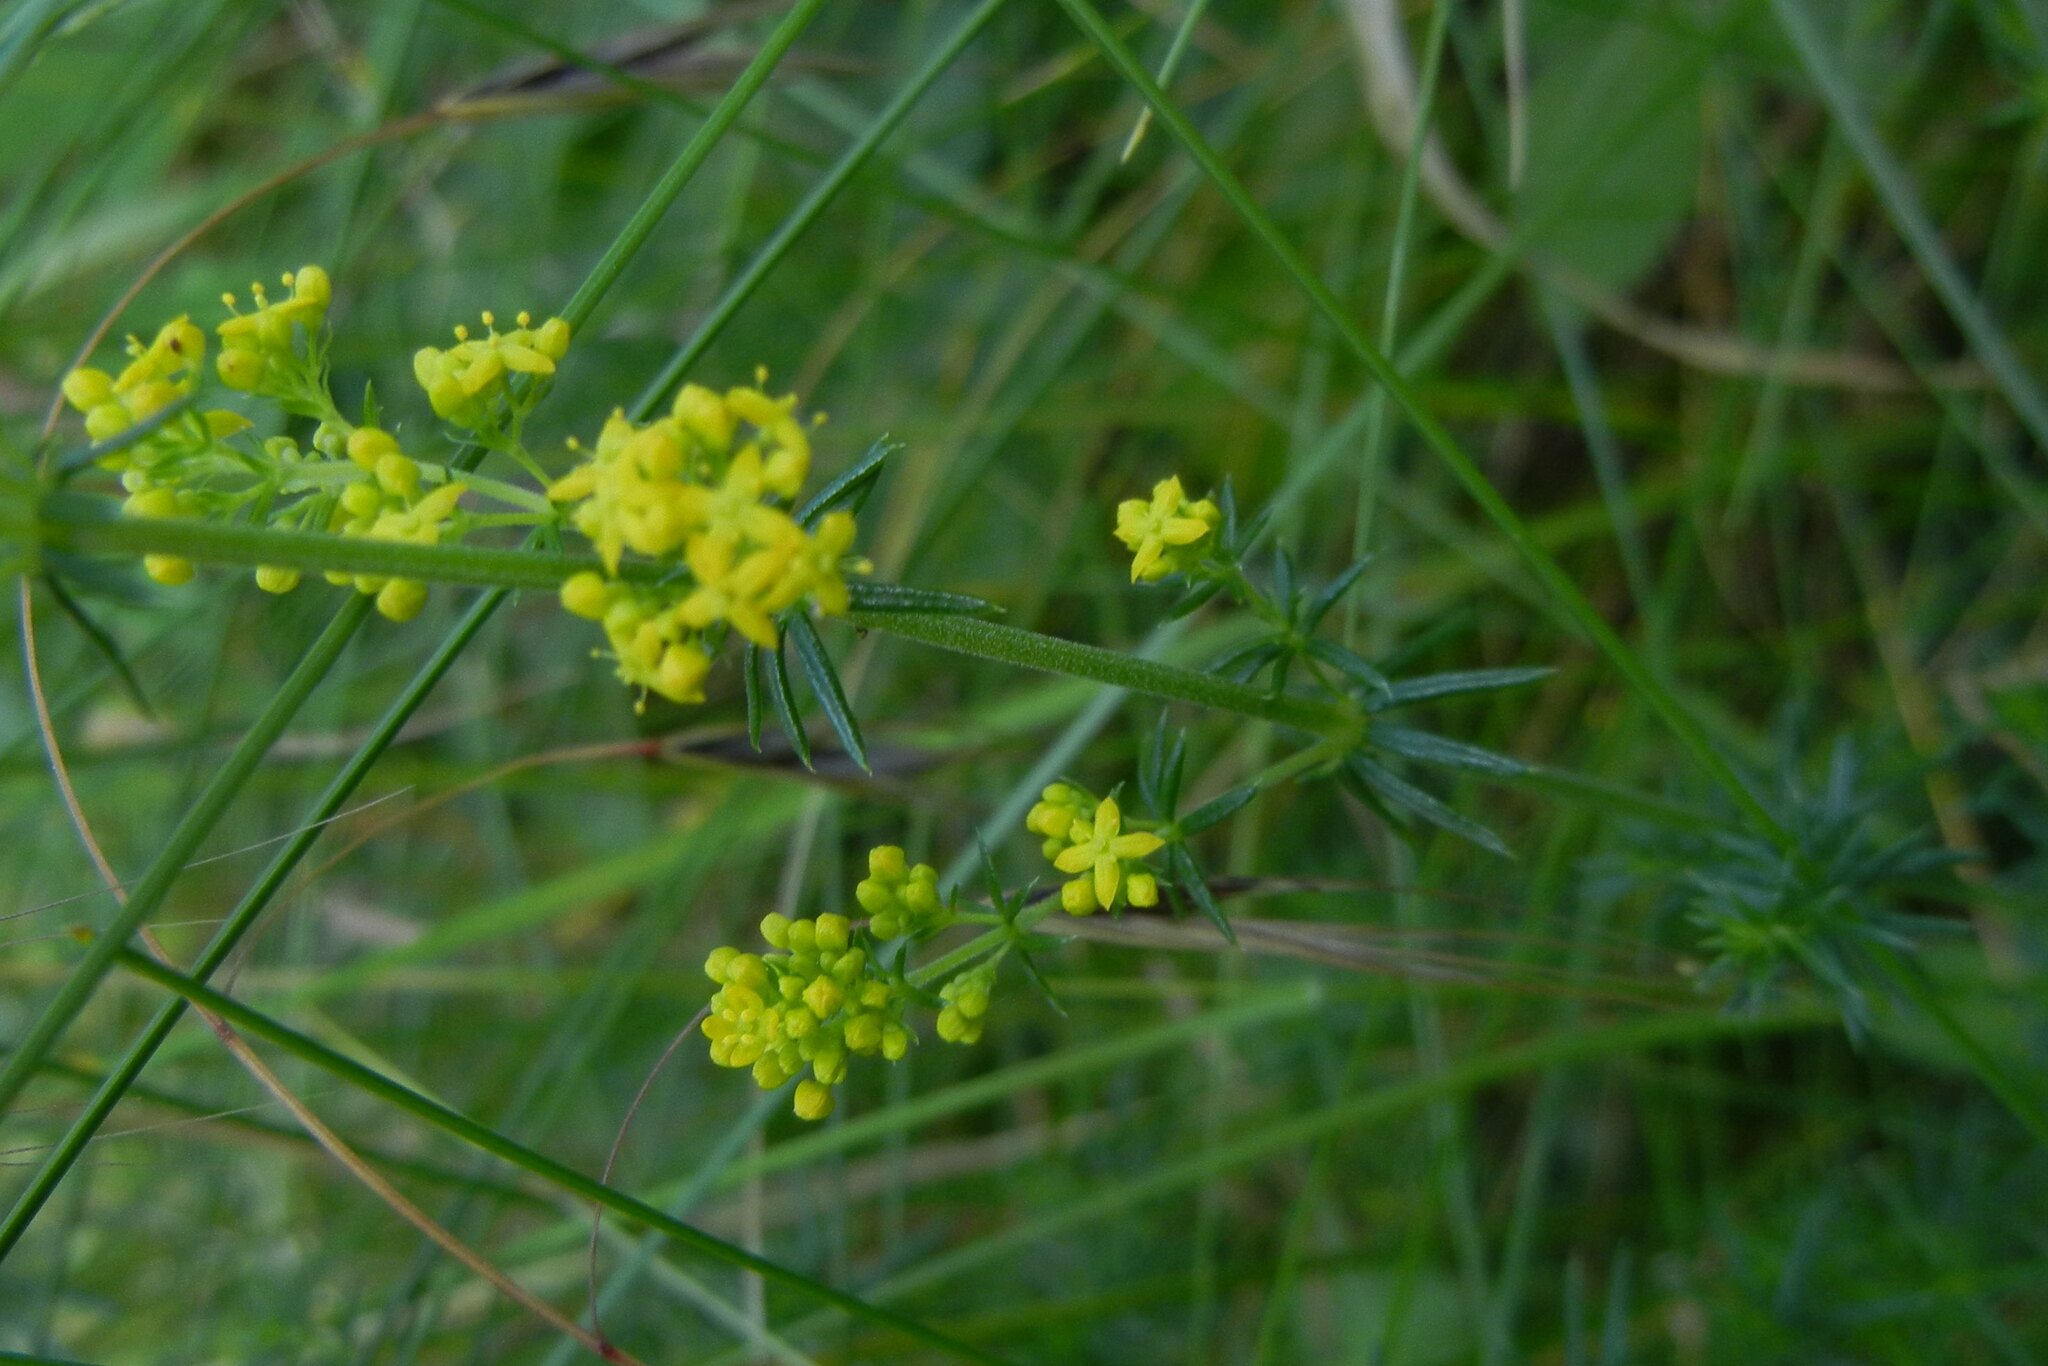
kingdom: Plantae
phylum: Tracheophyta
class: Magnoliopsida
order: Gentianales
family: Rubiaceae
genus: Galium
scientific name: Galium verum
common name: Lady's bedstraw
